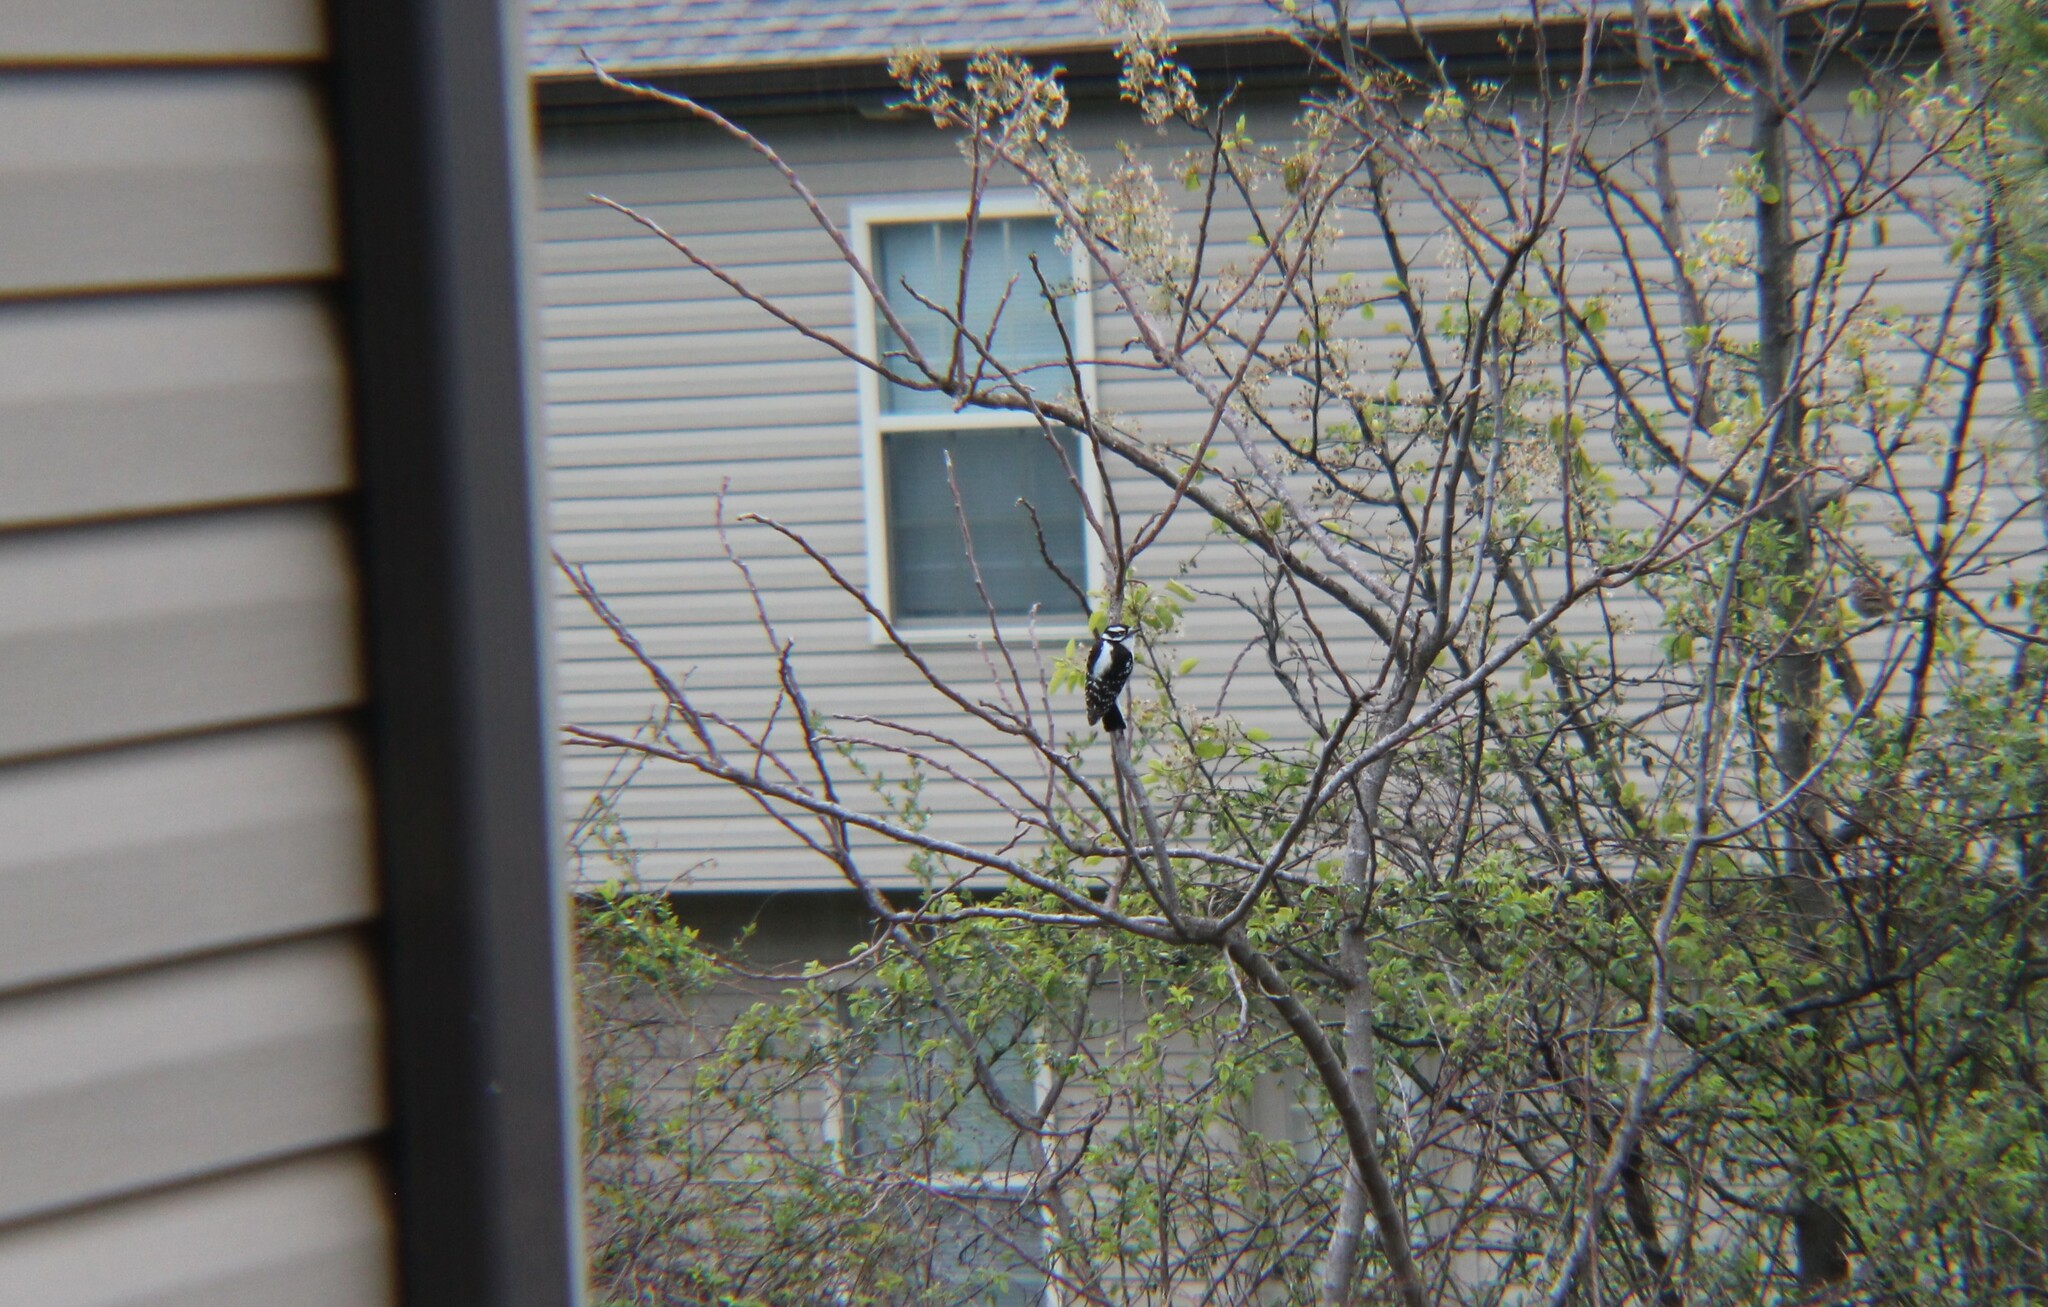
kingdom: Animalia
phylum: Chordata
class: Aves
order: Piciformes
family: Picidae
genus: Dryobates
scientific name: Dryobates pubescens
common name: Downy woodpecker
